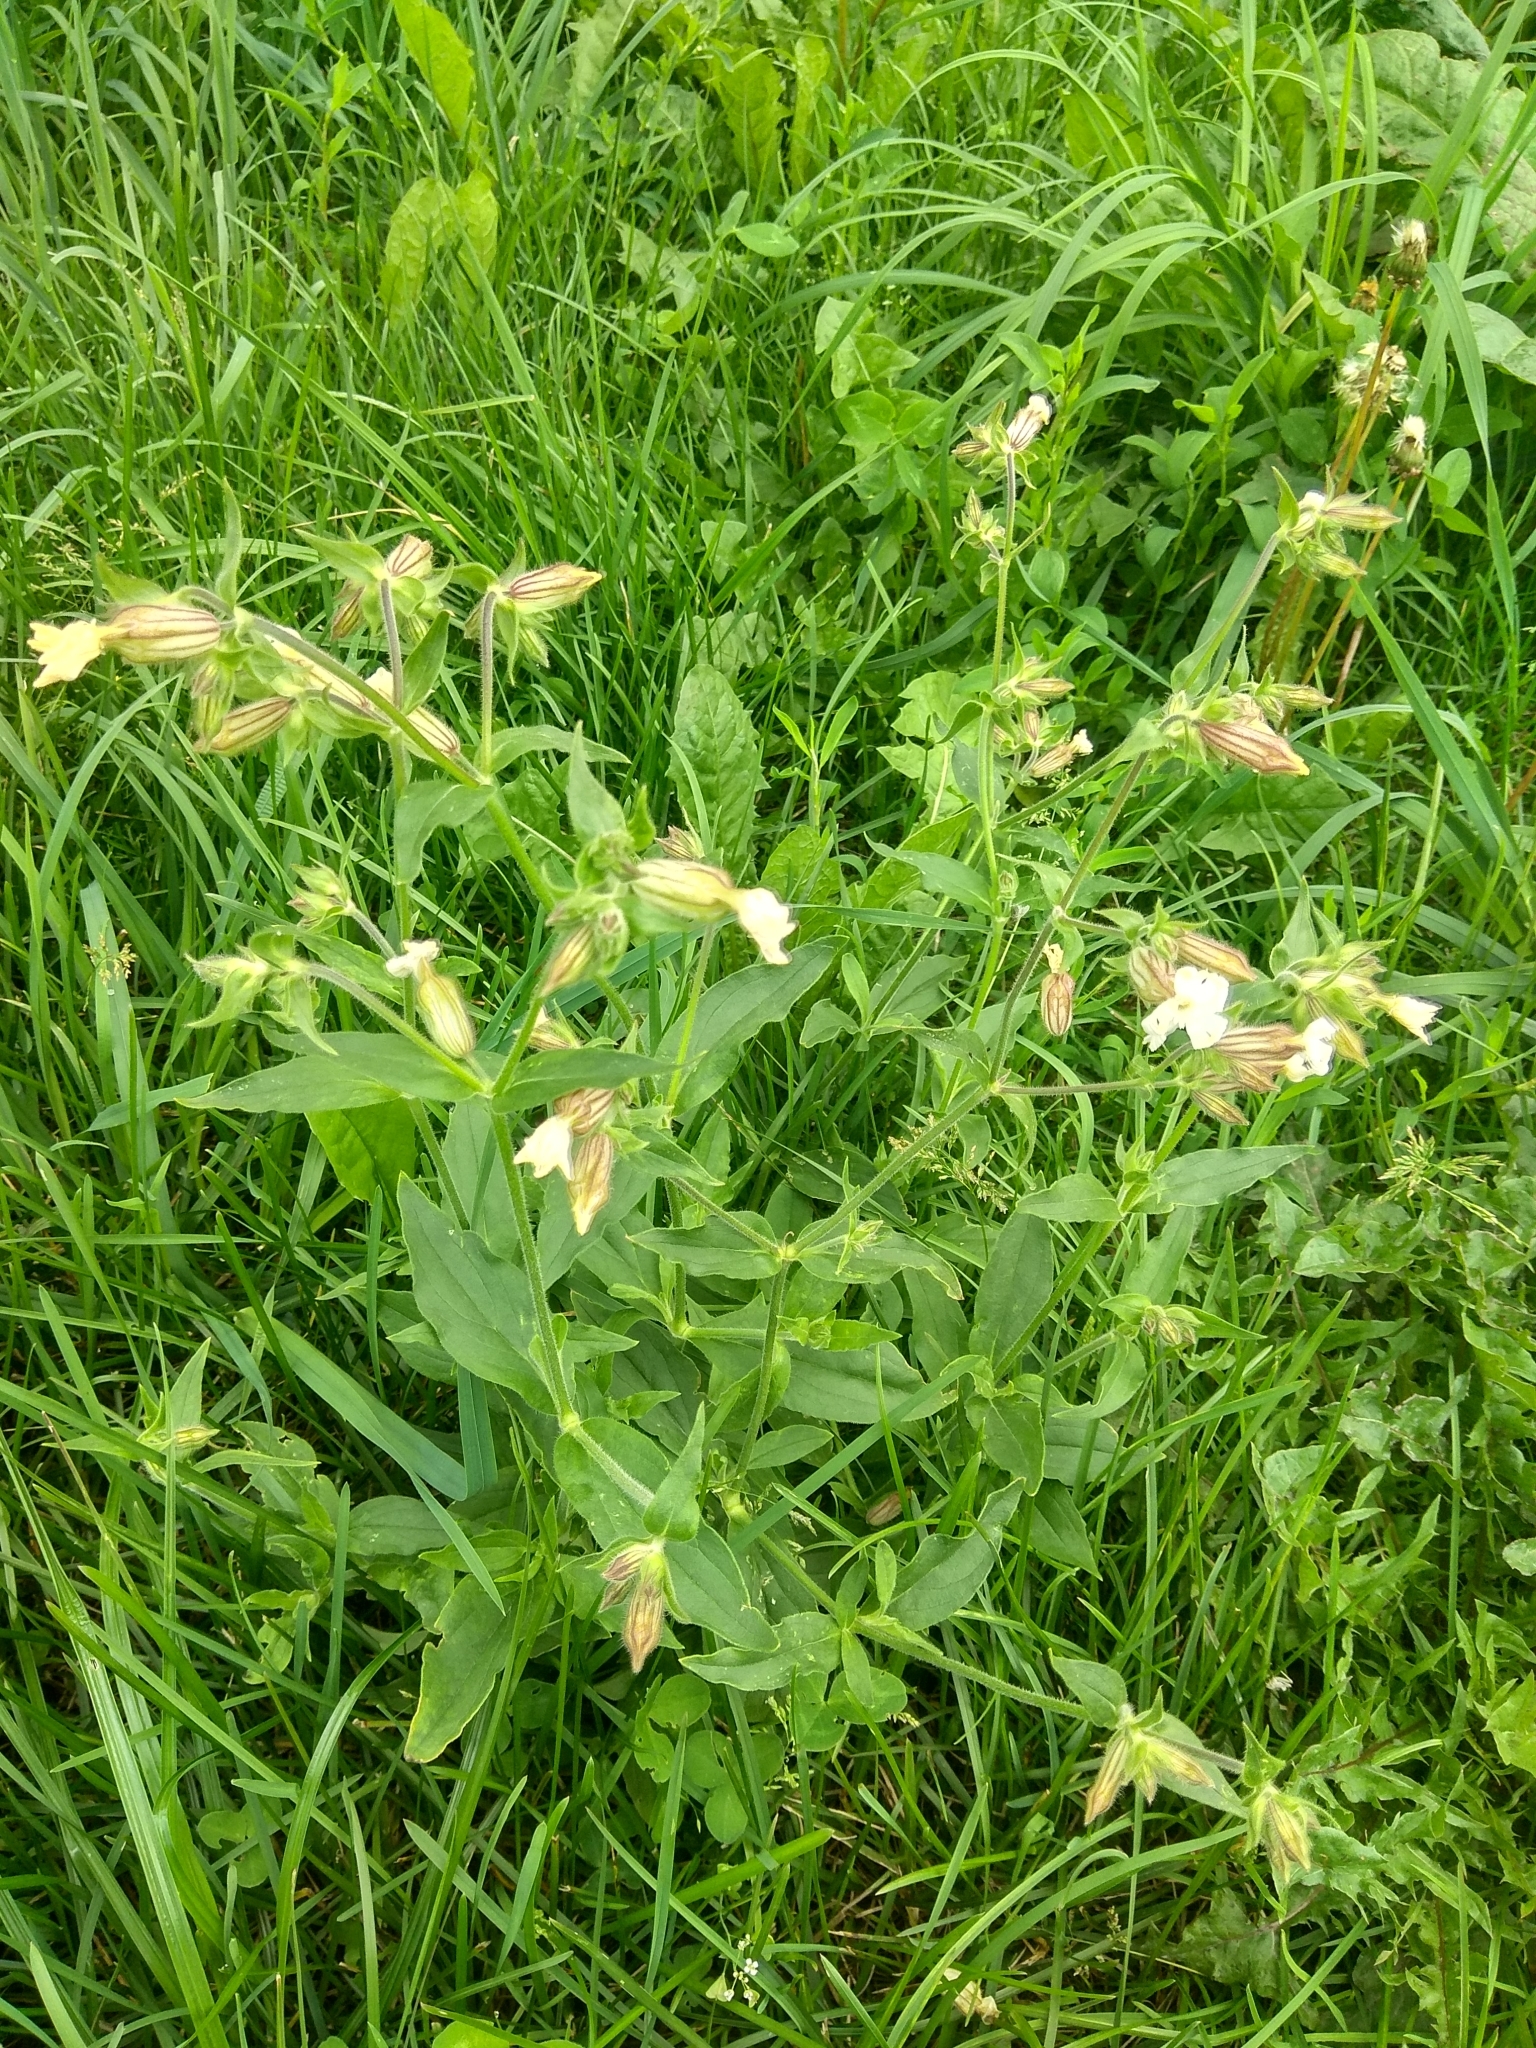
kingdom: Plantae
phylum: Tracheophyta
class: Magnoliopsida
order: Caryophyllales
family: Caryophyllaceae
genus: Silene
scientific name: Silene latifolia
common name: White campion
